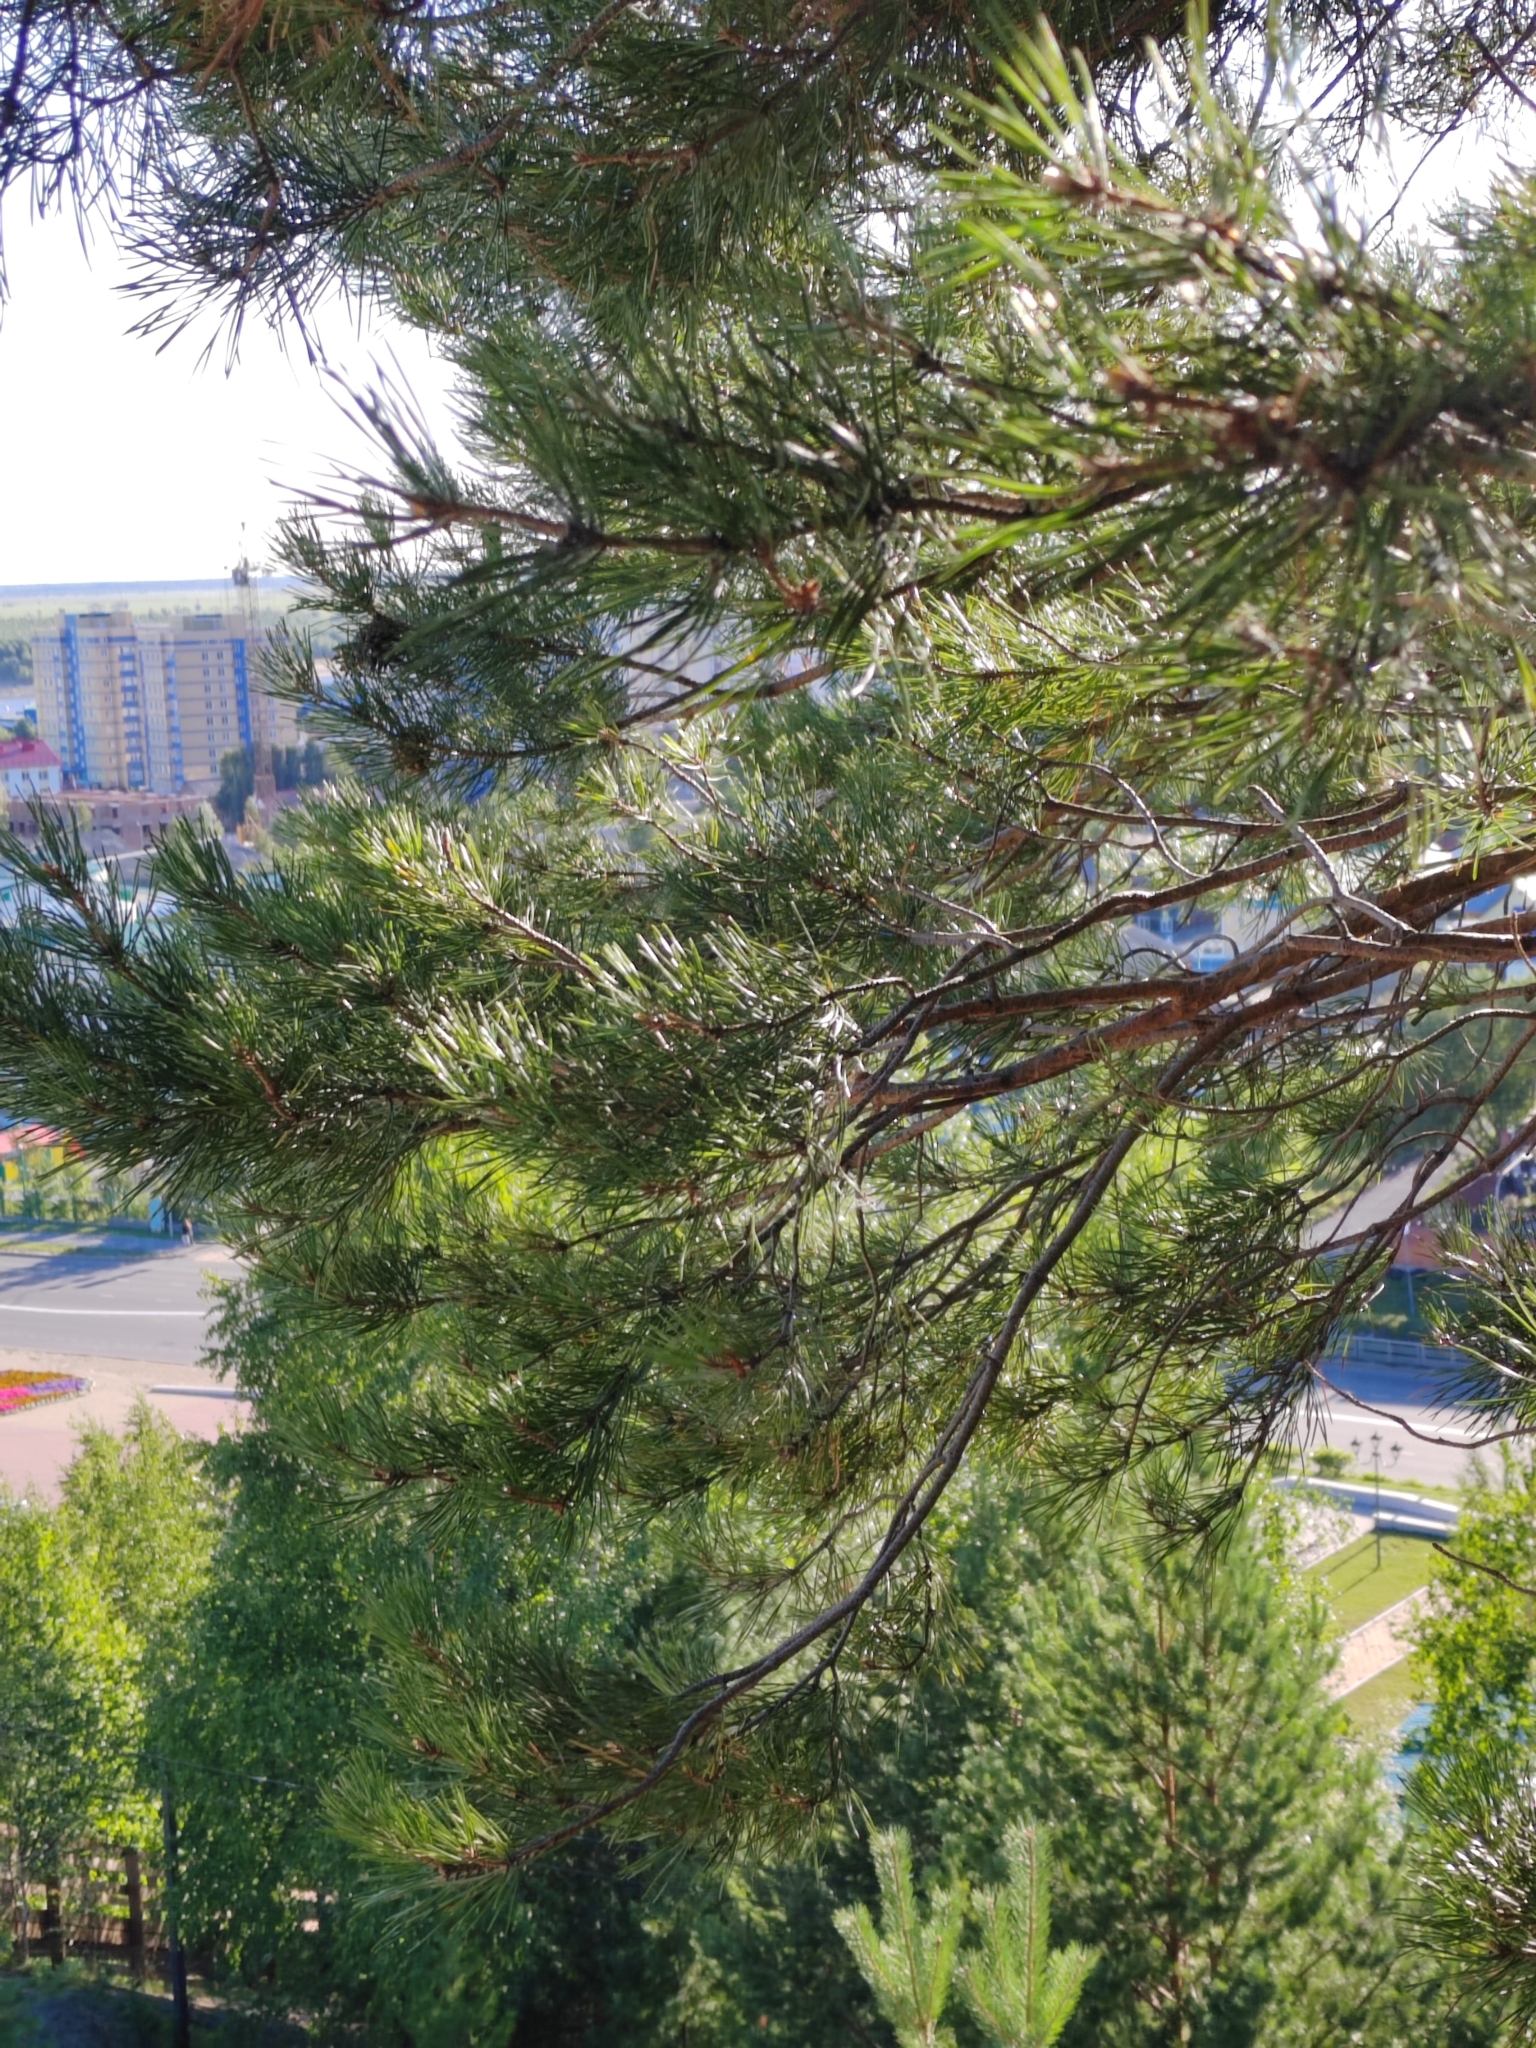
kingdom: Plantae
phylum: Tracheophyta
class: Pinopsida
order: Pinales
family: Pinaceae
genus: Pinus
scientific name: Pinus sylvestris
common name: Scots pine
